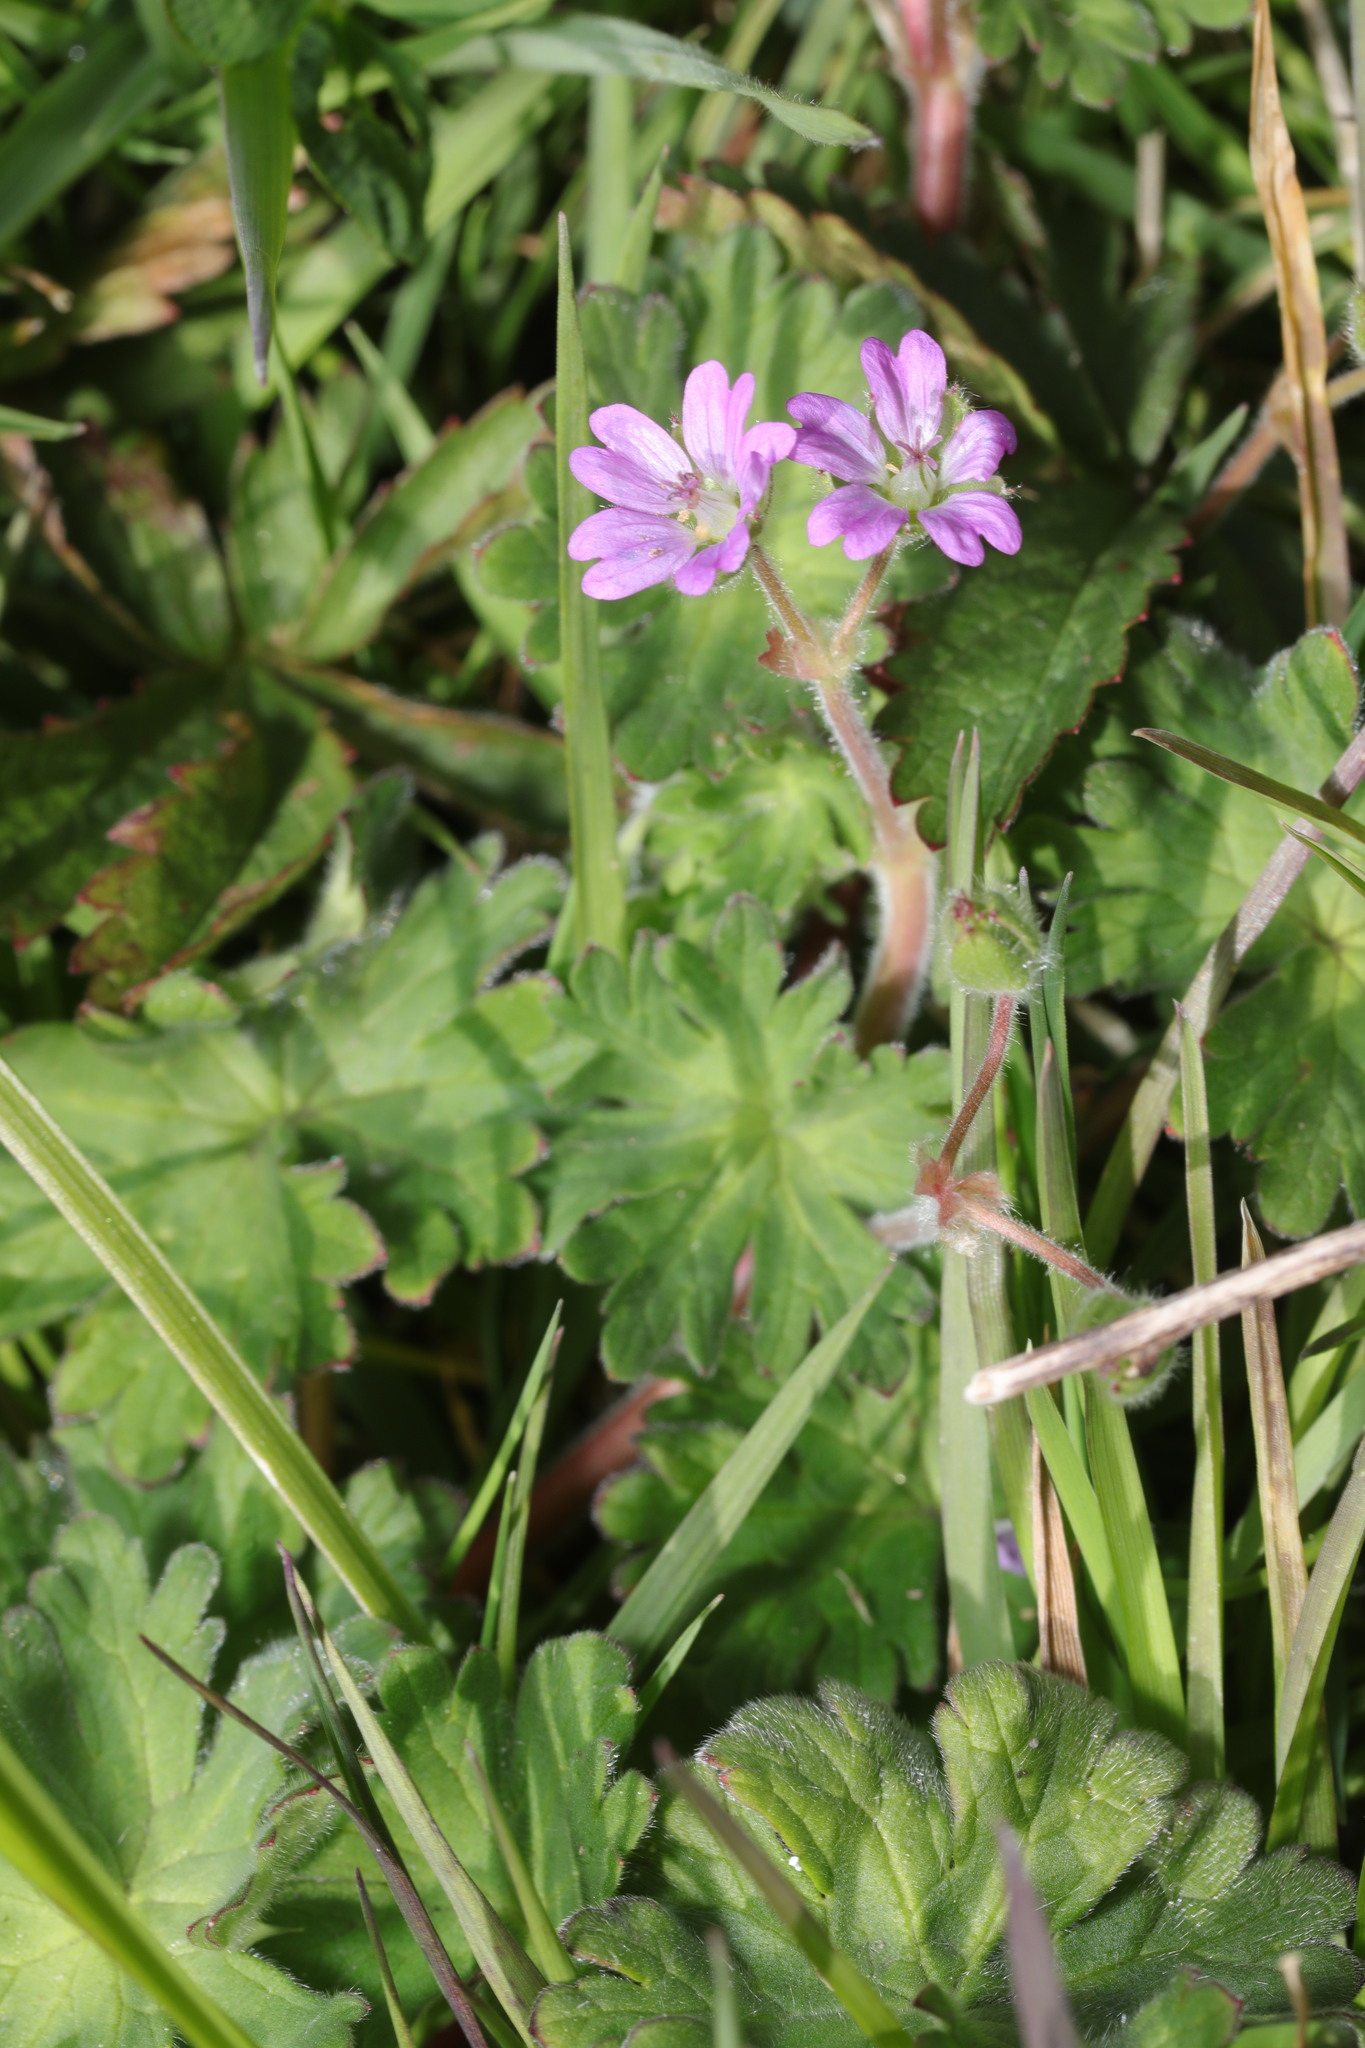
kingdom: Plantae
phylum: Tracheophyta
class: Magnoliopsida
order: Geraniales
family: Geraniaceae
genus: Geranium
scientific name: Geranium molle
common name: Dove's-foot crane's-bill
